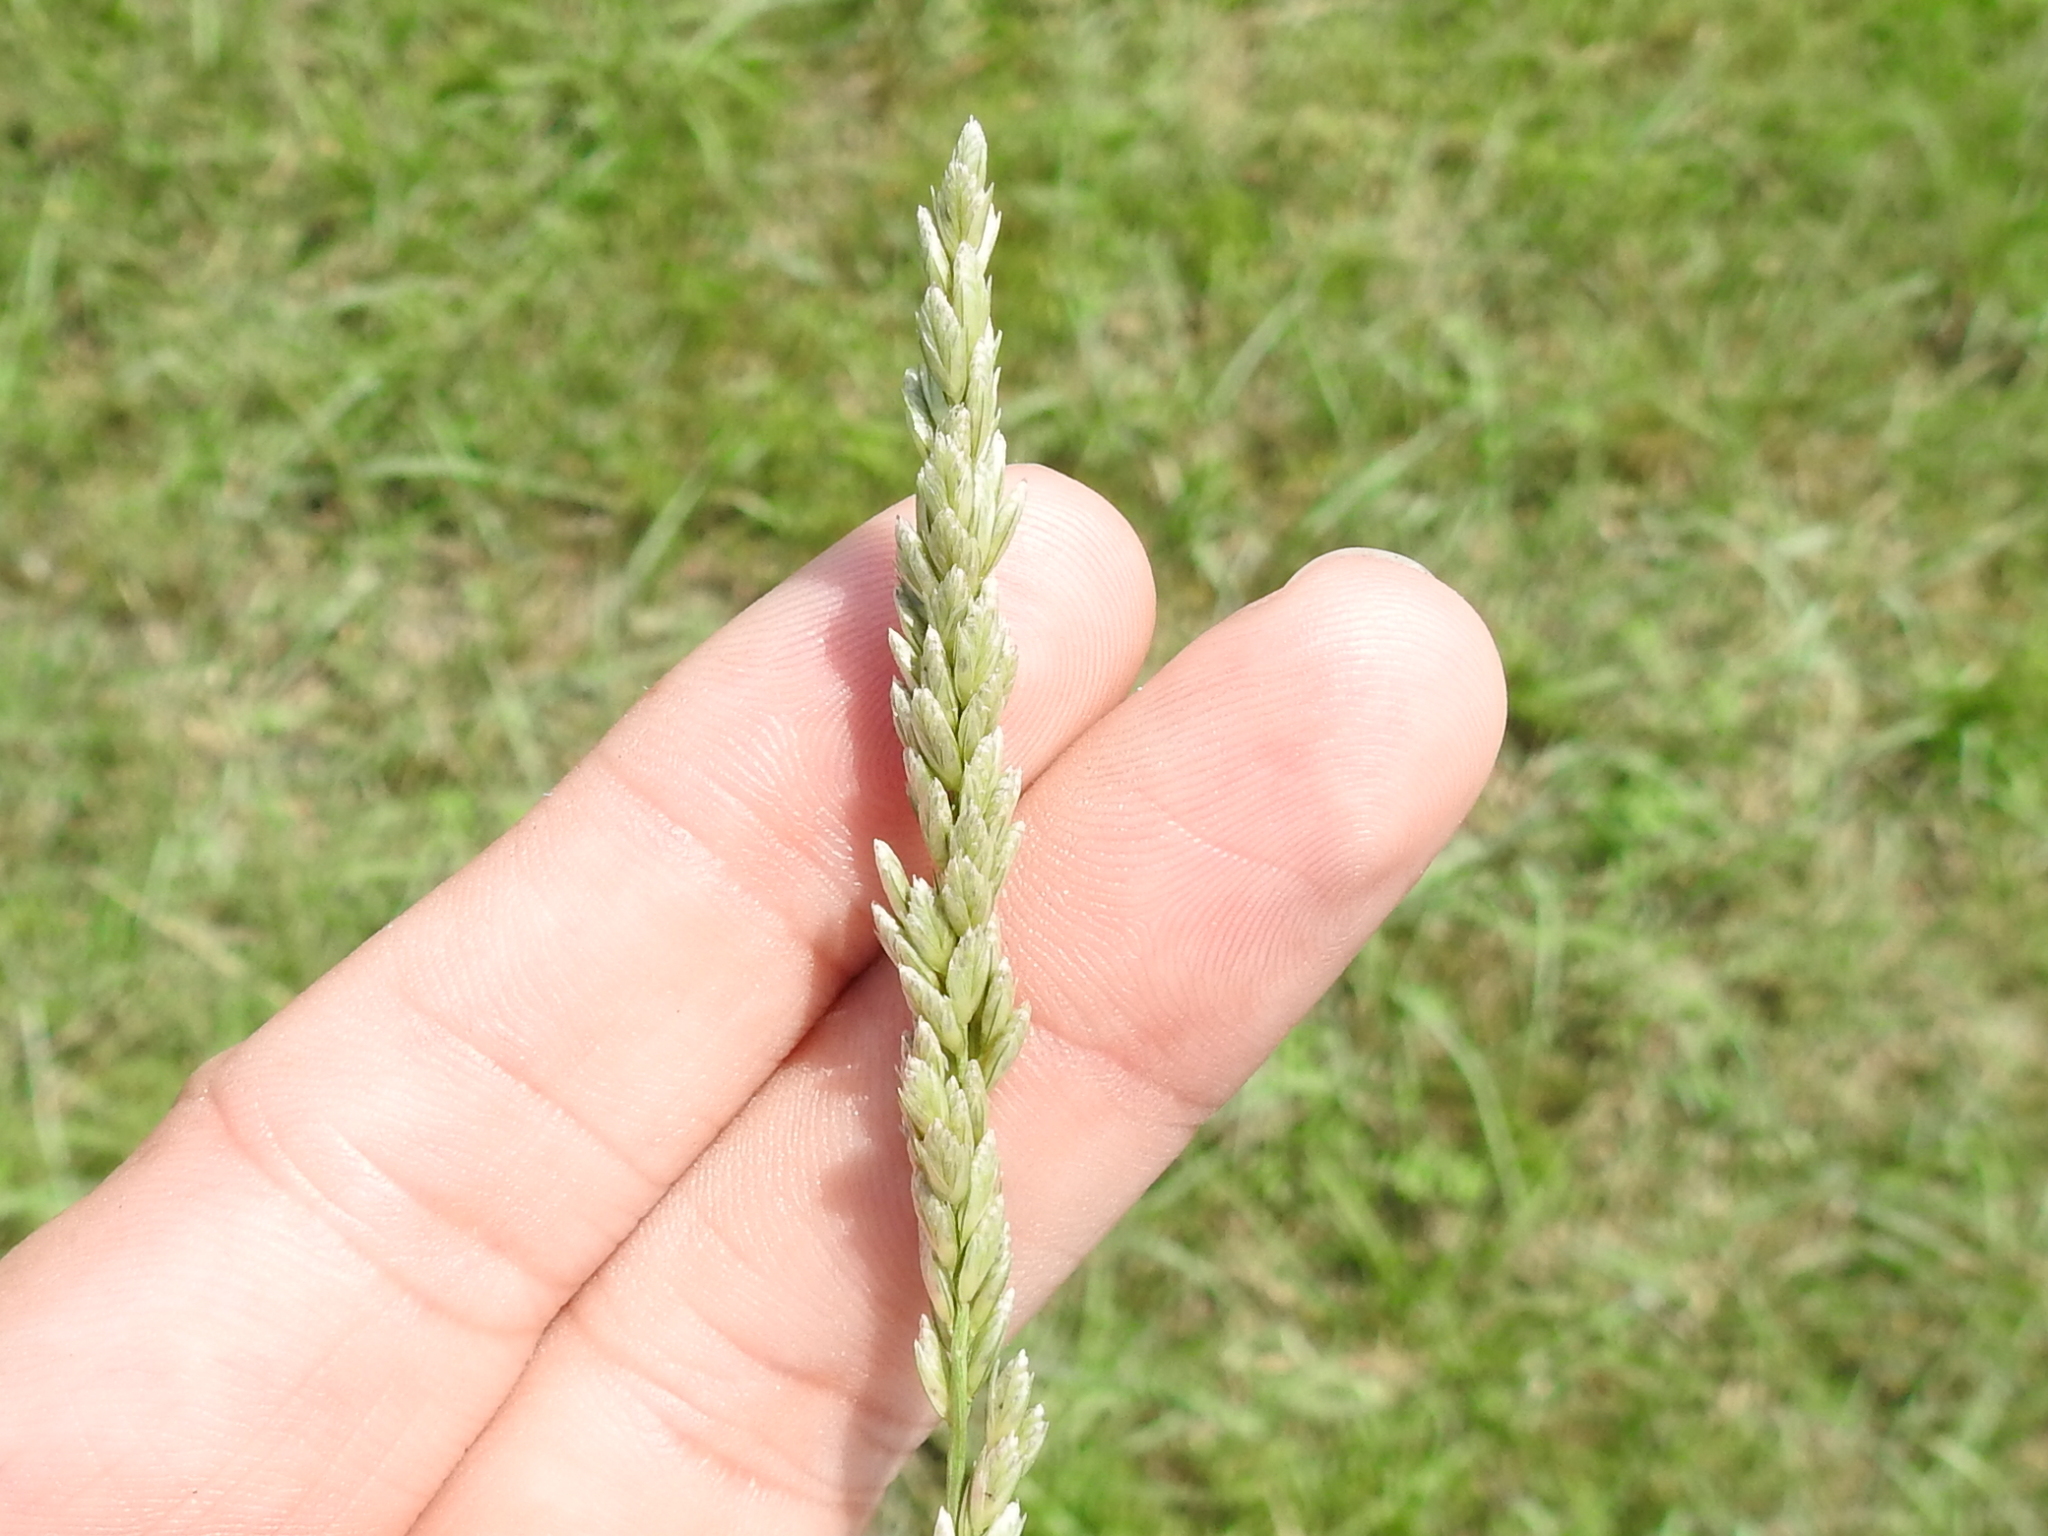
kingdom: Plantae
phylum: Tracheophyta
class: Liliopsida
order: Poales
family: Poaceae
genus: Tridens
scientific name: Tridens albescens
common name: White tridens
